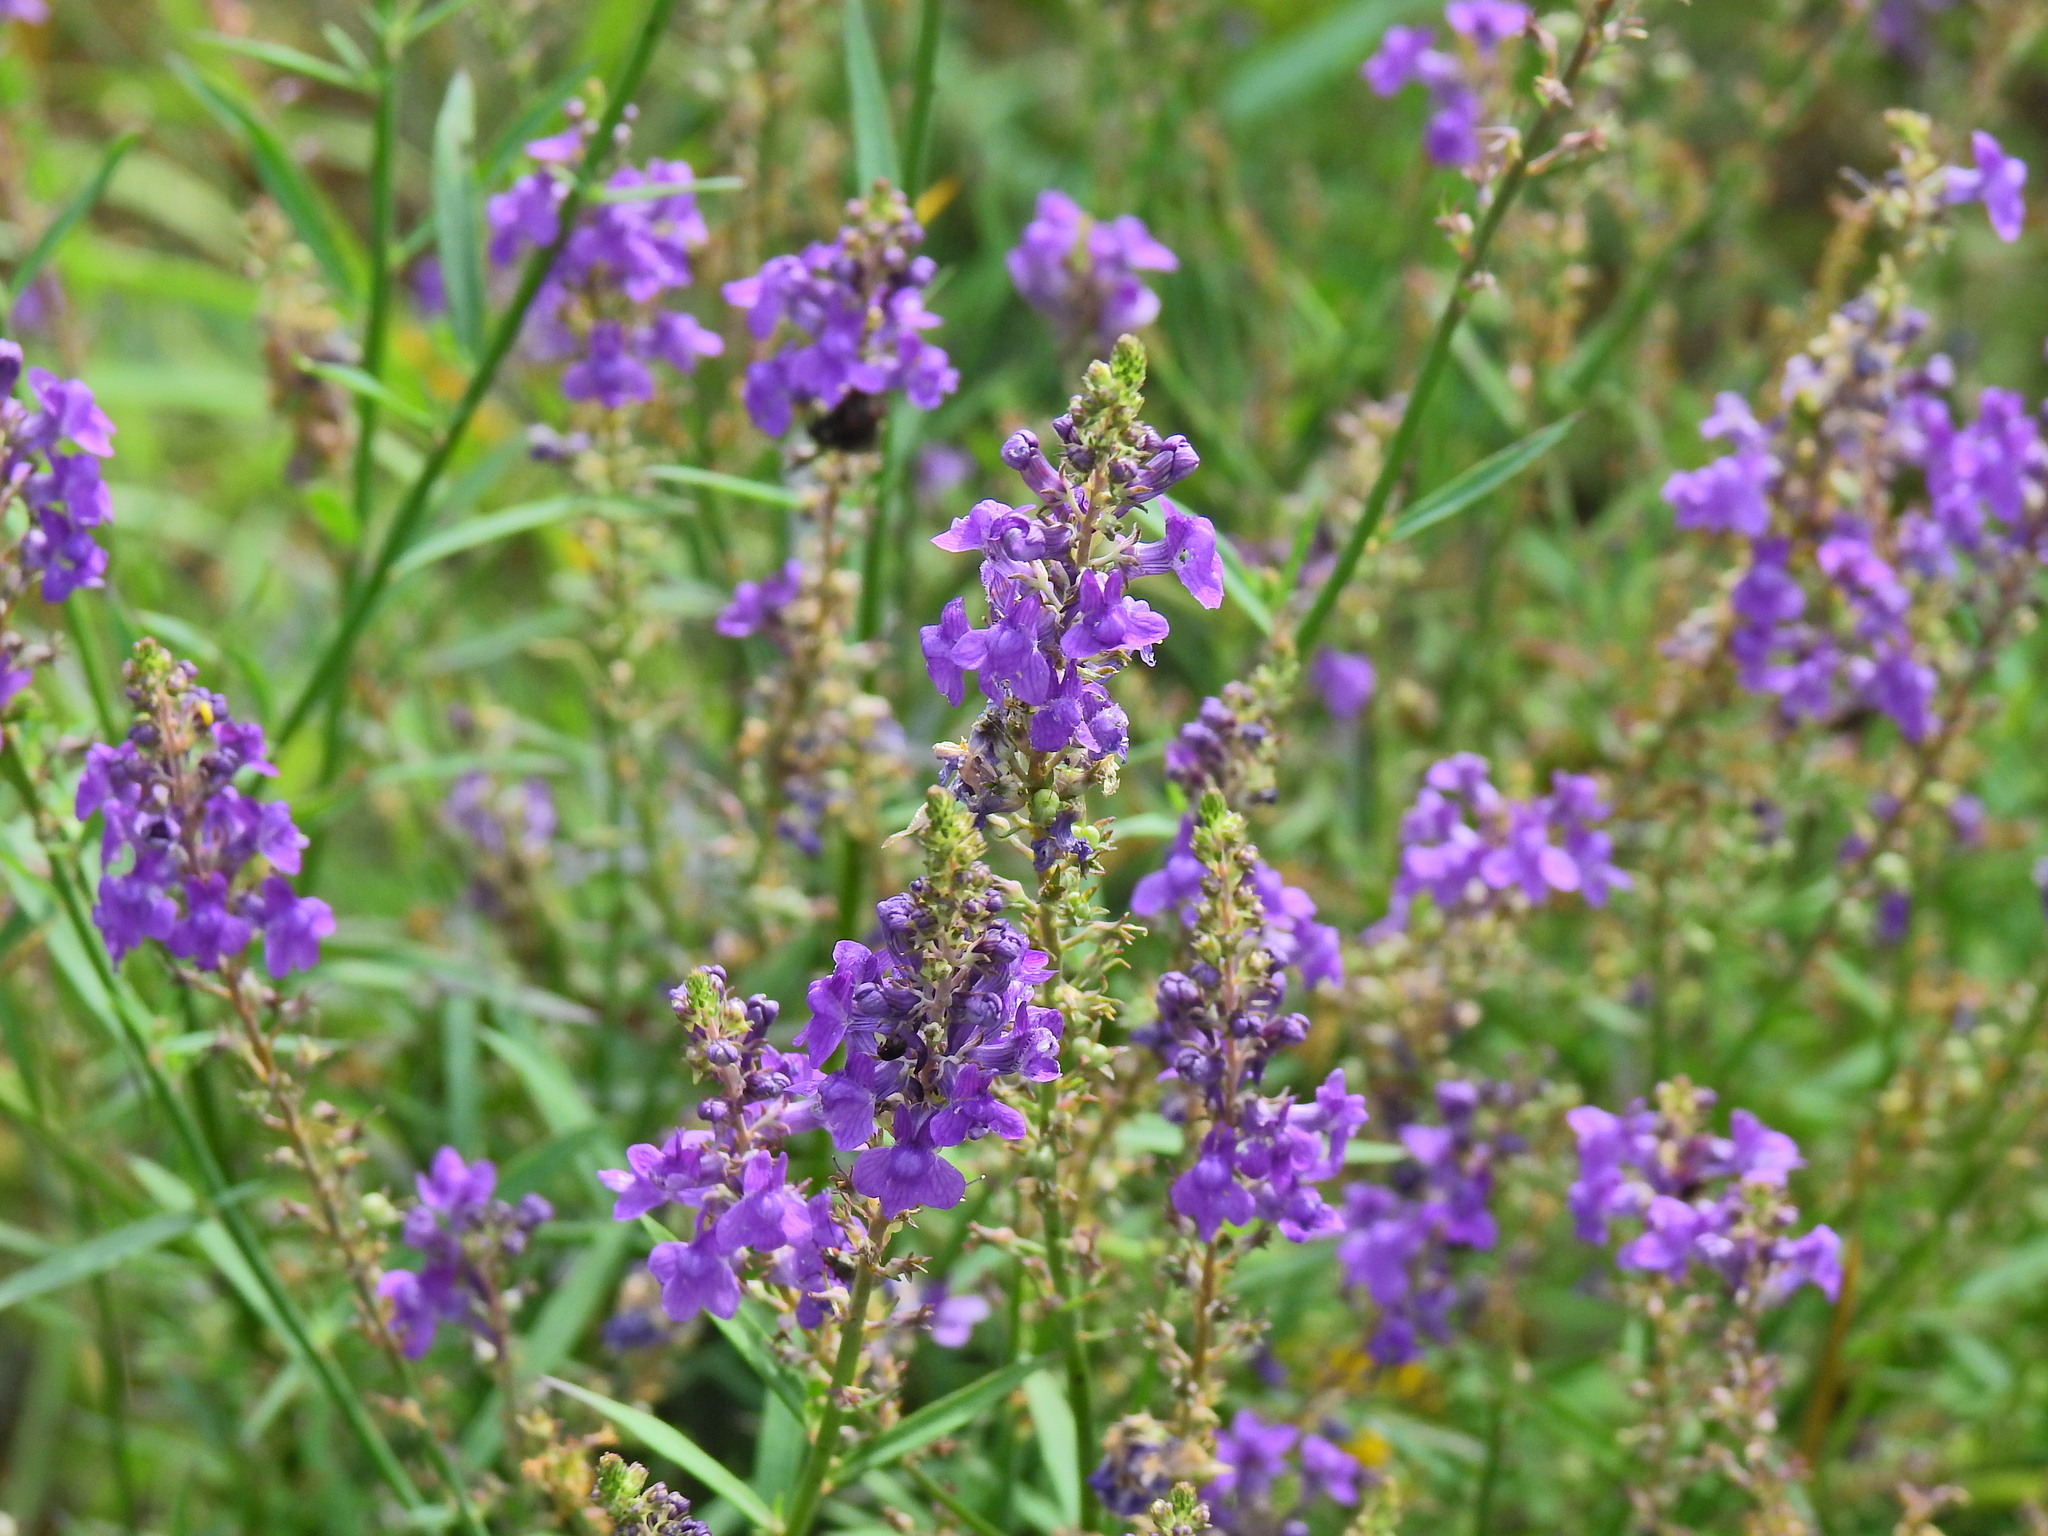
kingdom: Plantae
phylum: Tracheophyta
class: Magnoliopsida
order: Lamiales
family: Plantaginaceae
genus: Linaria
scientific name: Linaria purpurea
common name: Purple toadflax
